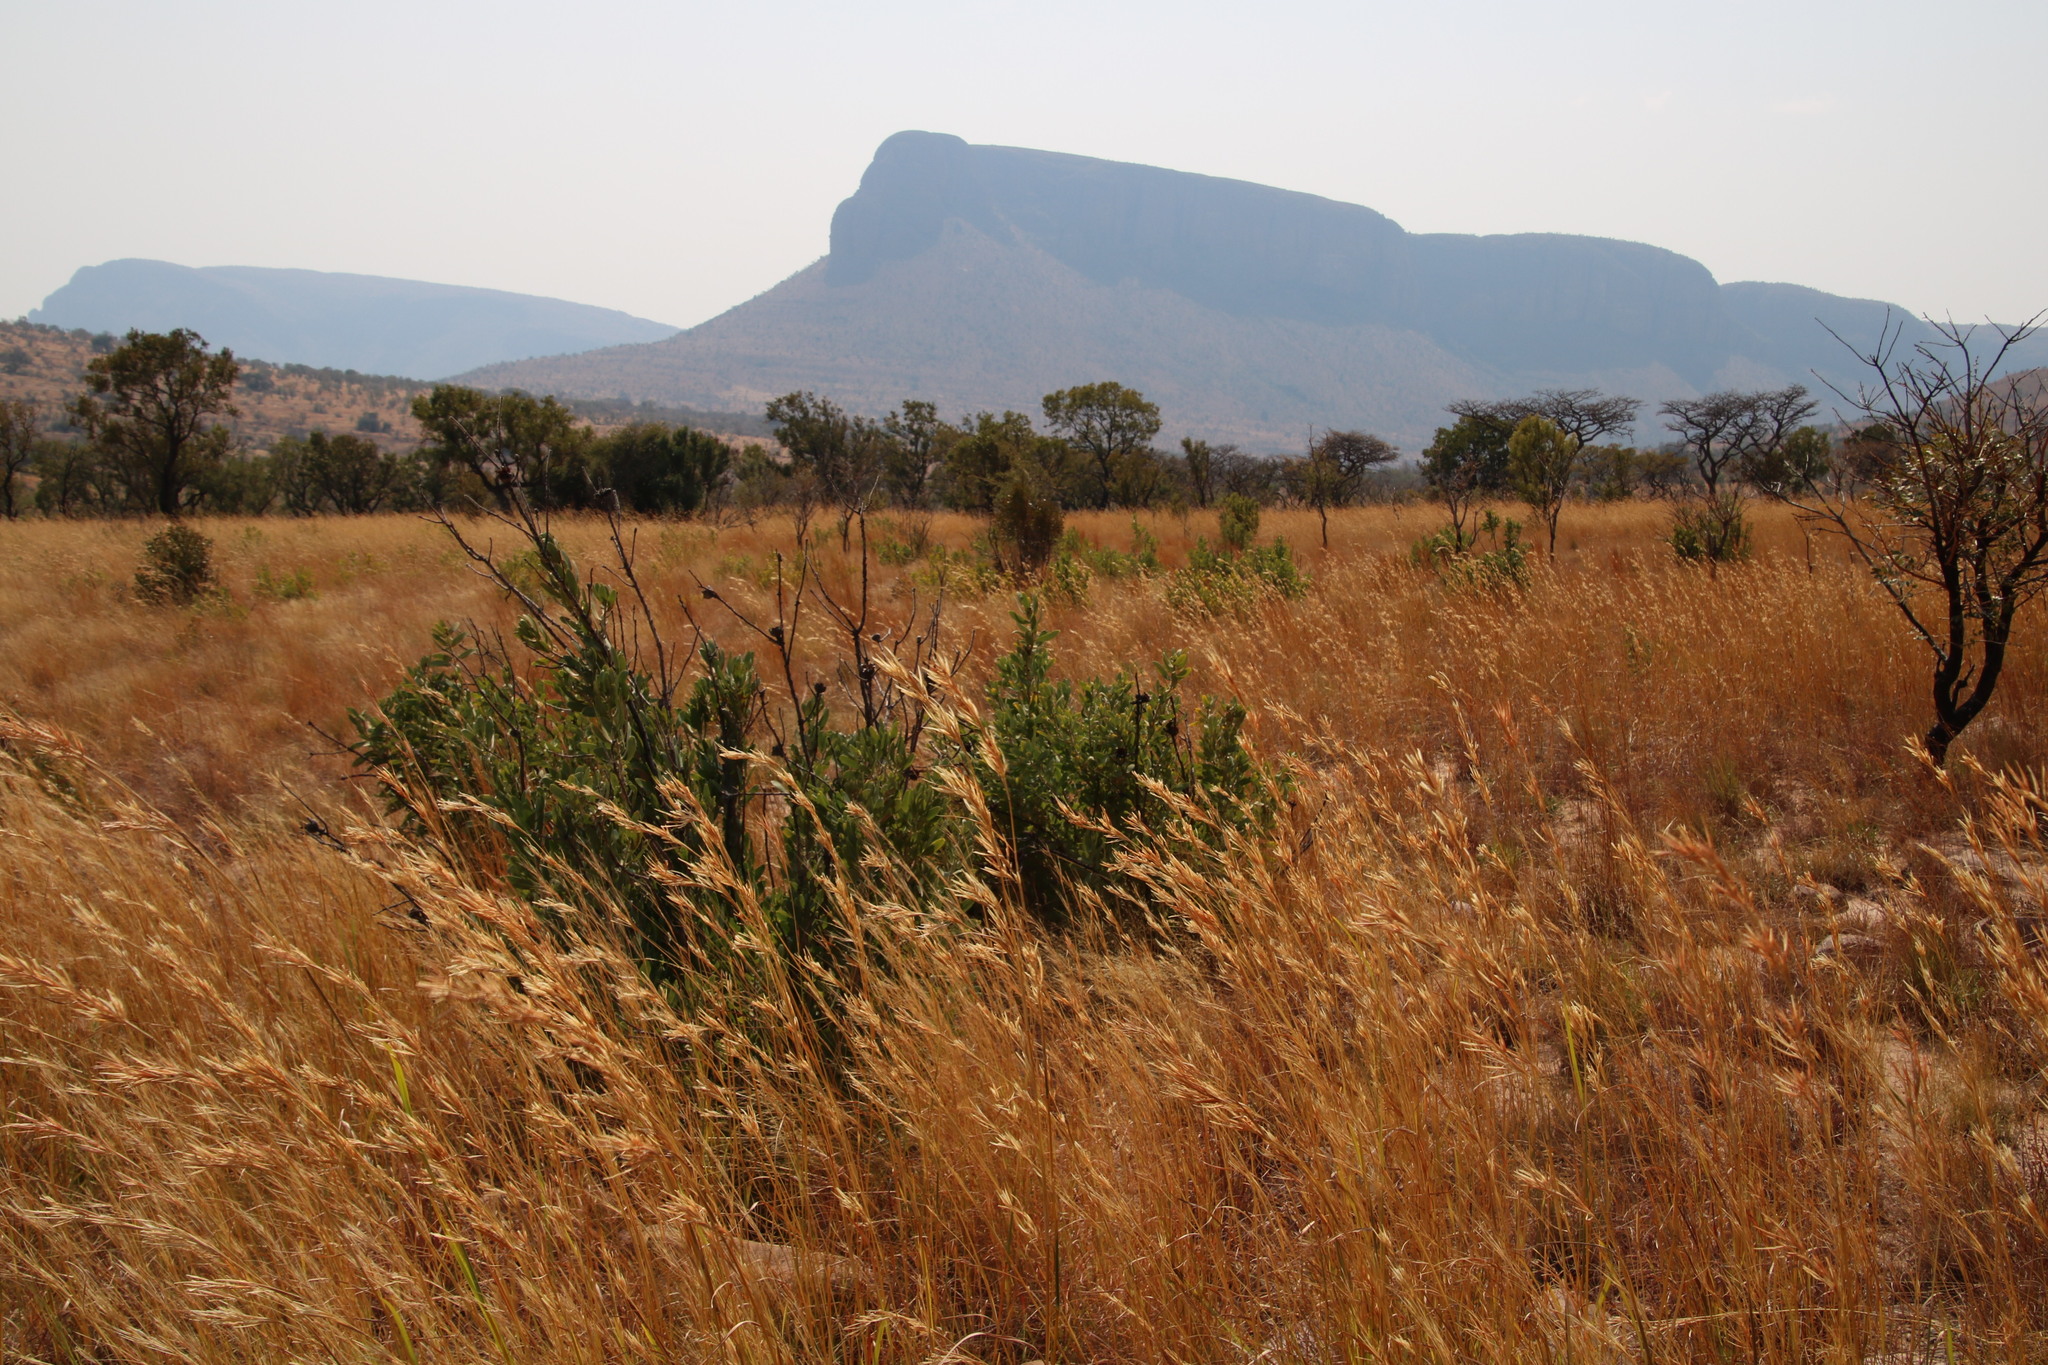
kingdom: Plantae
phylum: Tracheophyta
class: Magnoliopsida
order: Proteales
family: Proteaceae
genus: Protea
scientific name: Protea gaguedi
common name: African protea
